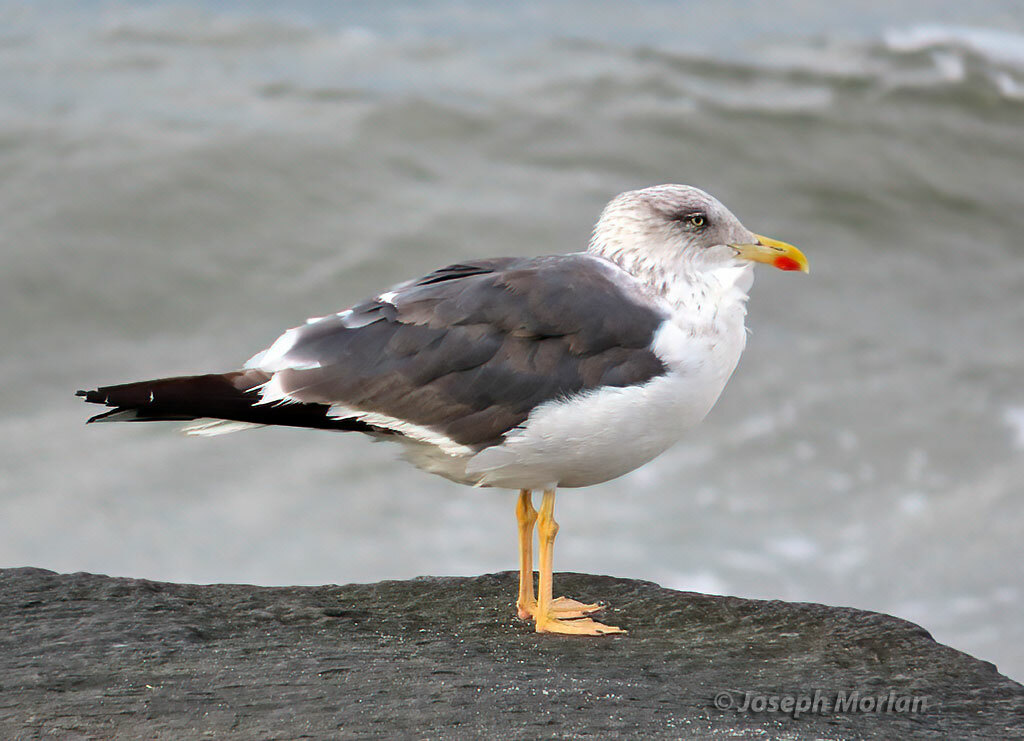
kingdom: Animalia
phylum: Chordata
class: Aves
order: Charadriiformes
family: Laridae
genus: Larus
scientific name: Larus fuscus
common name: Lesser black-backed gull
